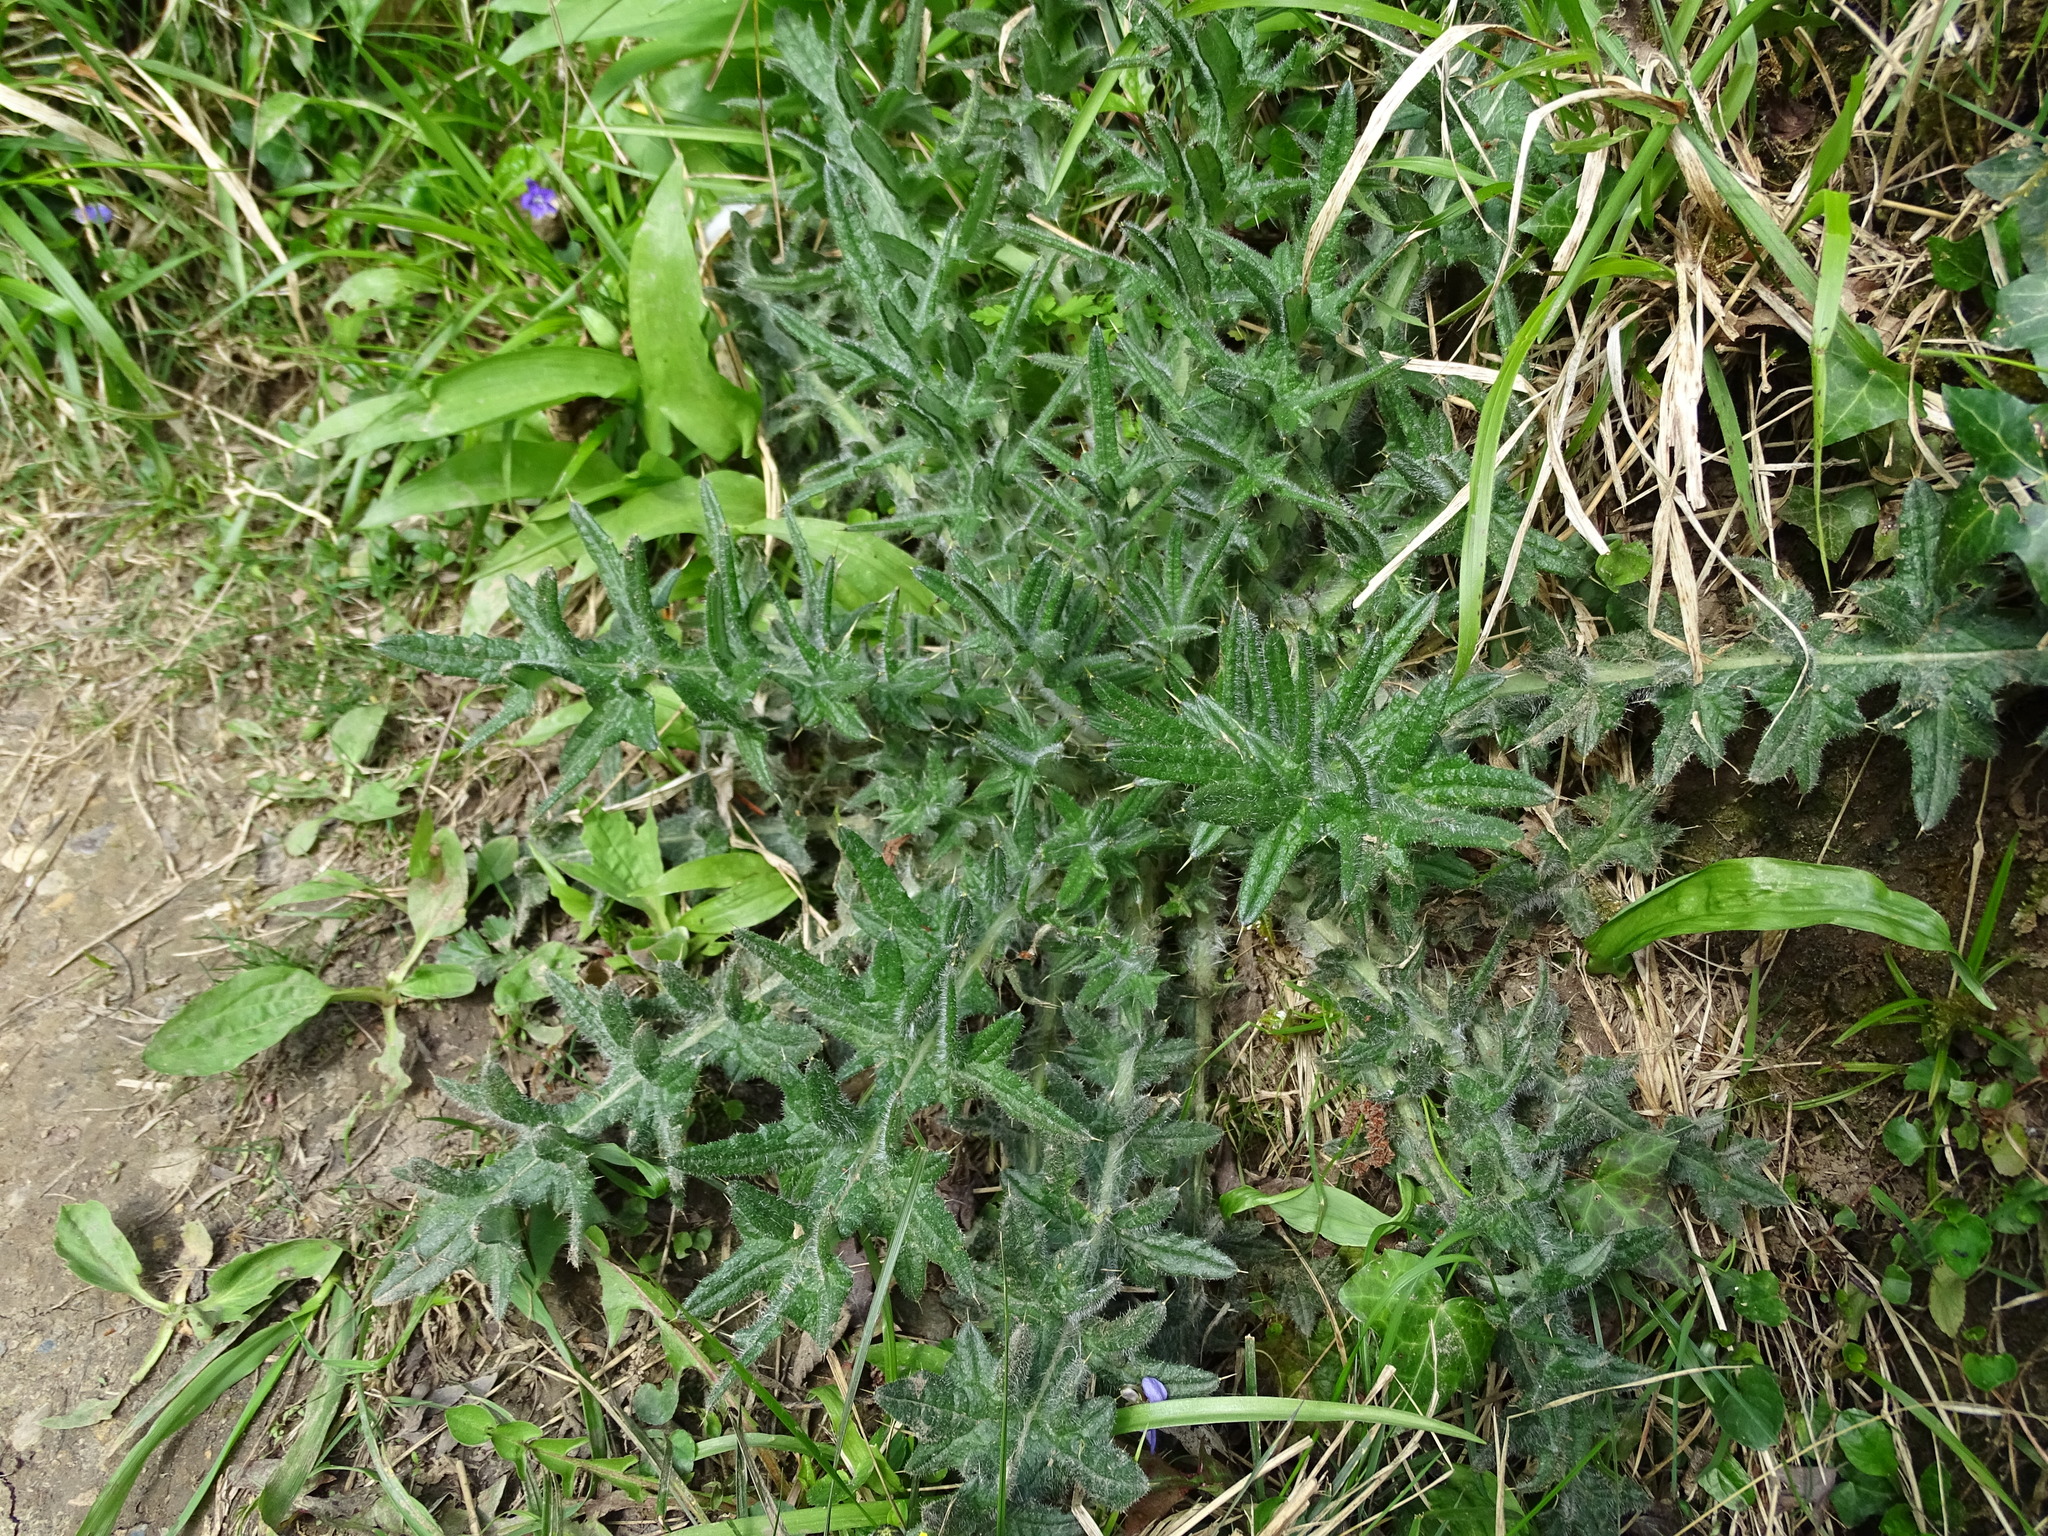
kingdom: Plantae
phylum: Tracheophyta
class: Magnoliopsida
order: Asterales
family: Asteraceae
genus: Cirsium
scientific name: Cirsium vulgare
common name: Bull thistle
